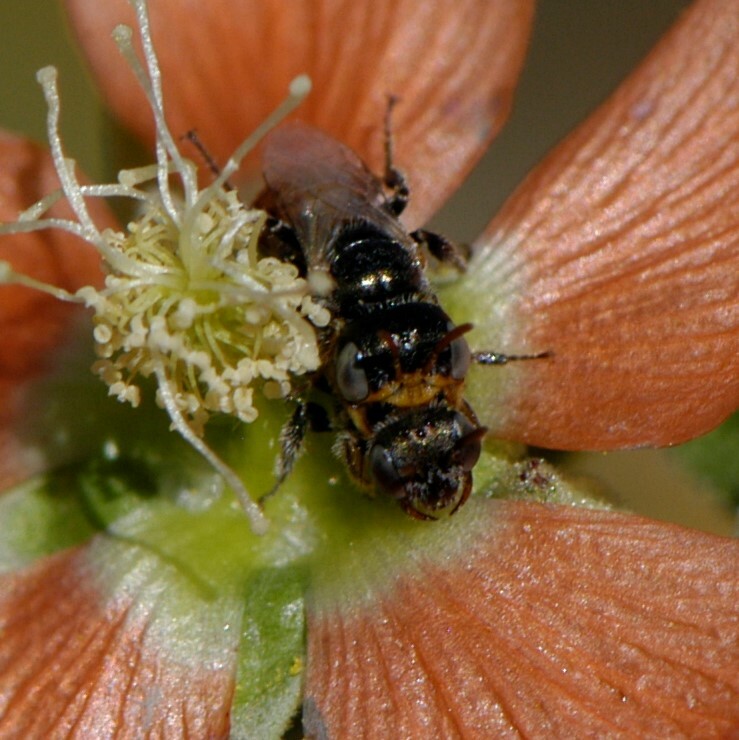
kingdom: Animalia
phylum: Arthropoda
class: Insecta
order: Hymenoptera
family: Andrenidae
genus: Macrotera
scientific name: Macrotera latior
